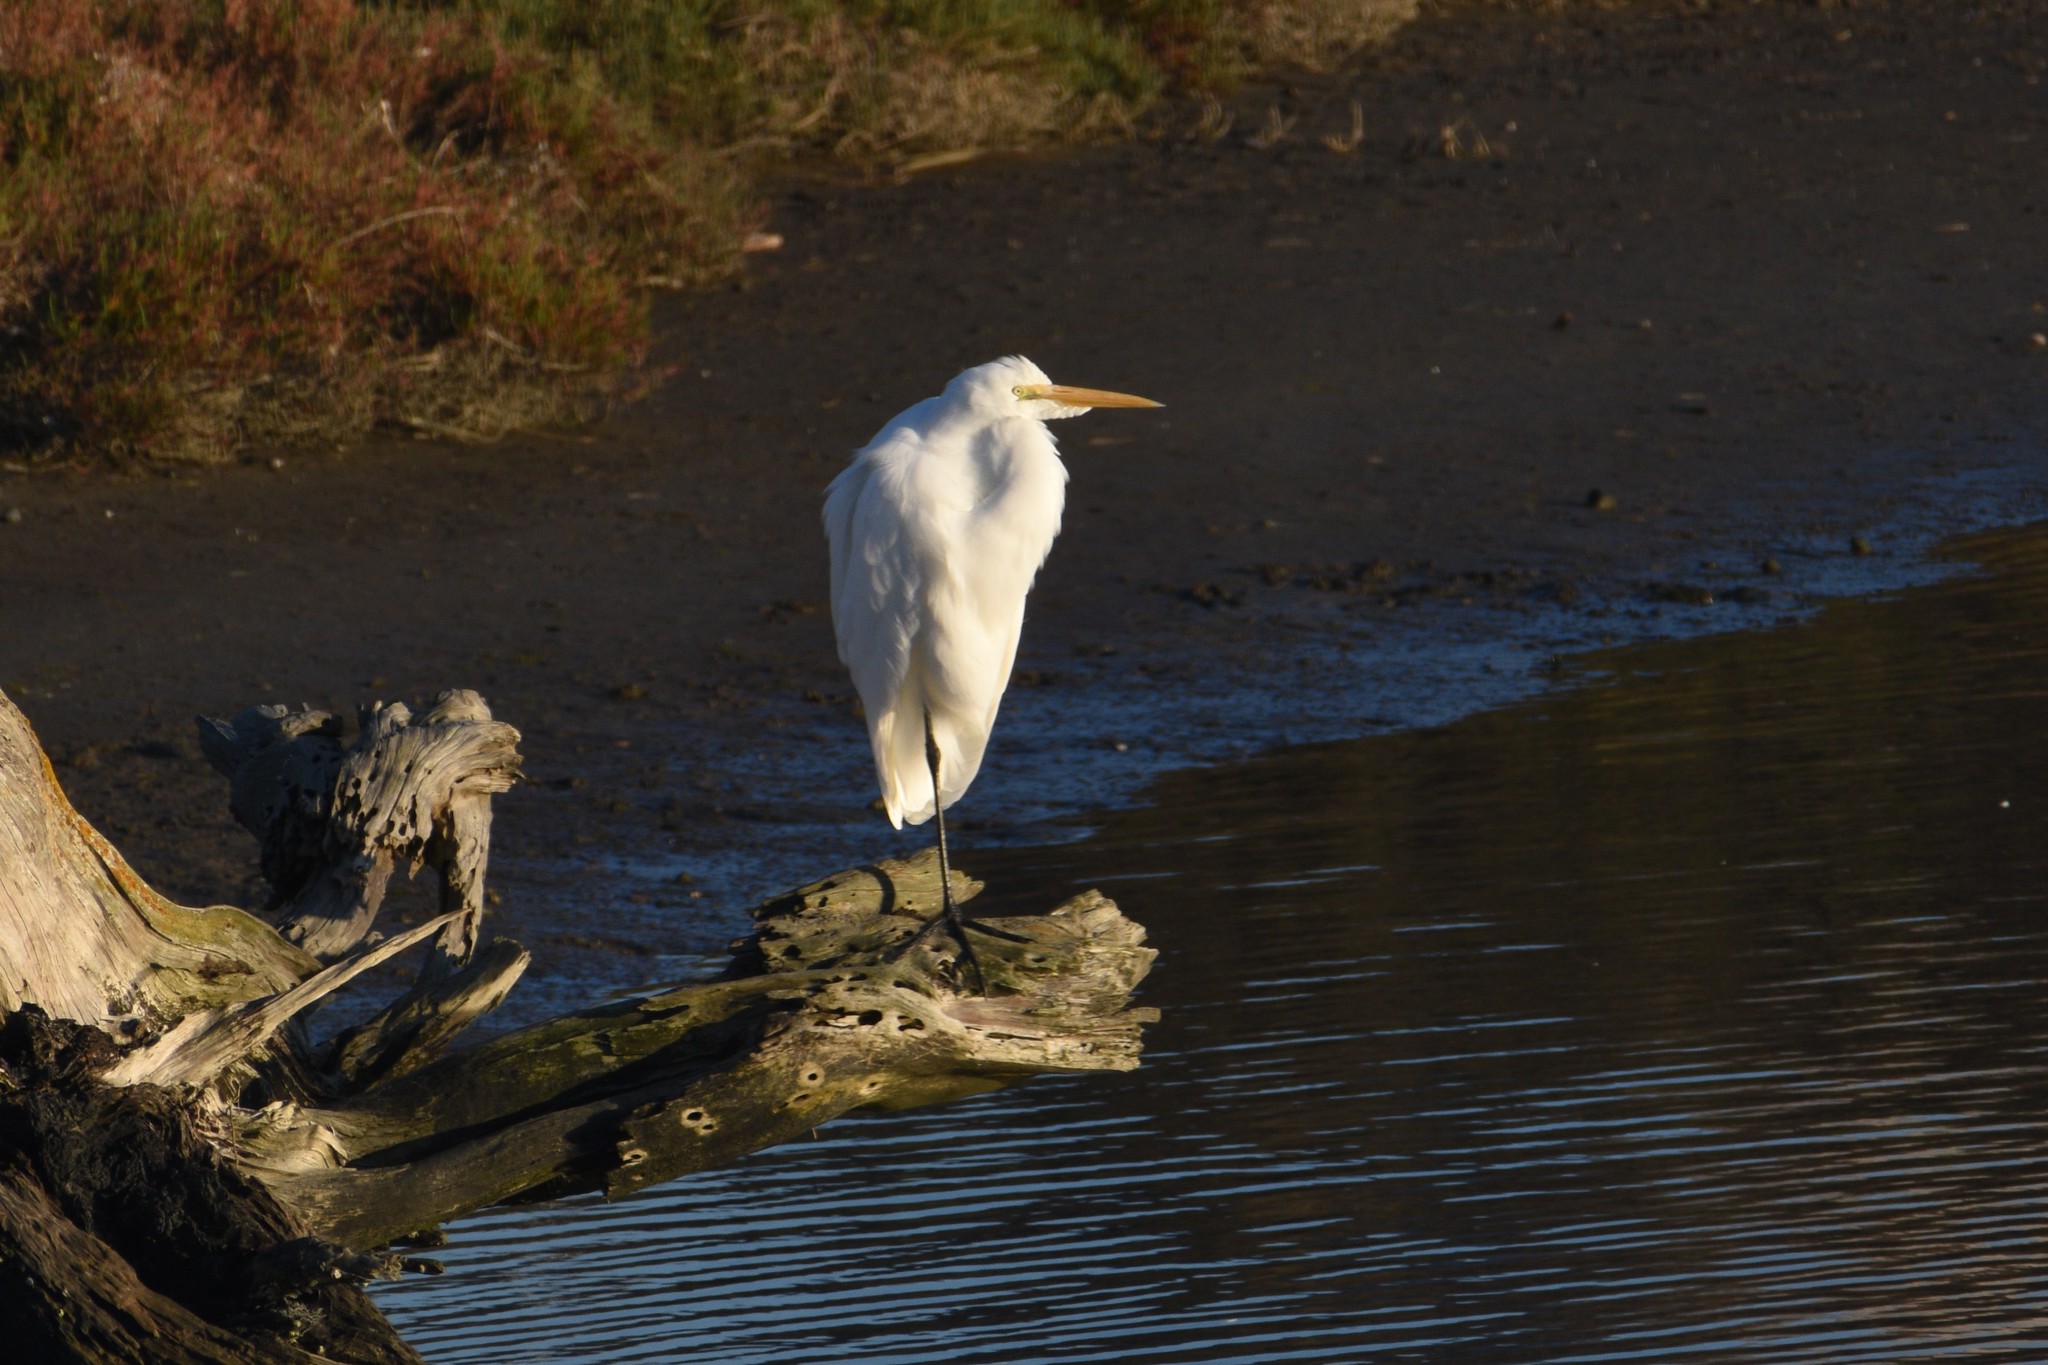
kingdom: Animalia
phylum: Chordata
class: Aves
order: Pelecaniformes
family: Ardeidae
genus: Ardea
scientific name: Ardea alba
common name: Great egret
